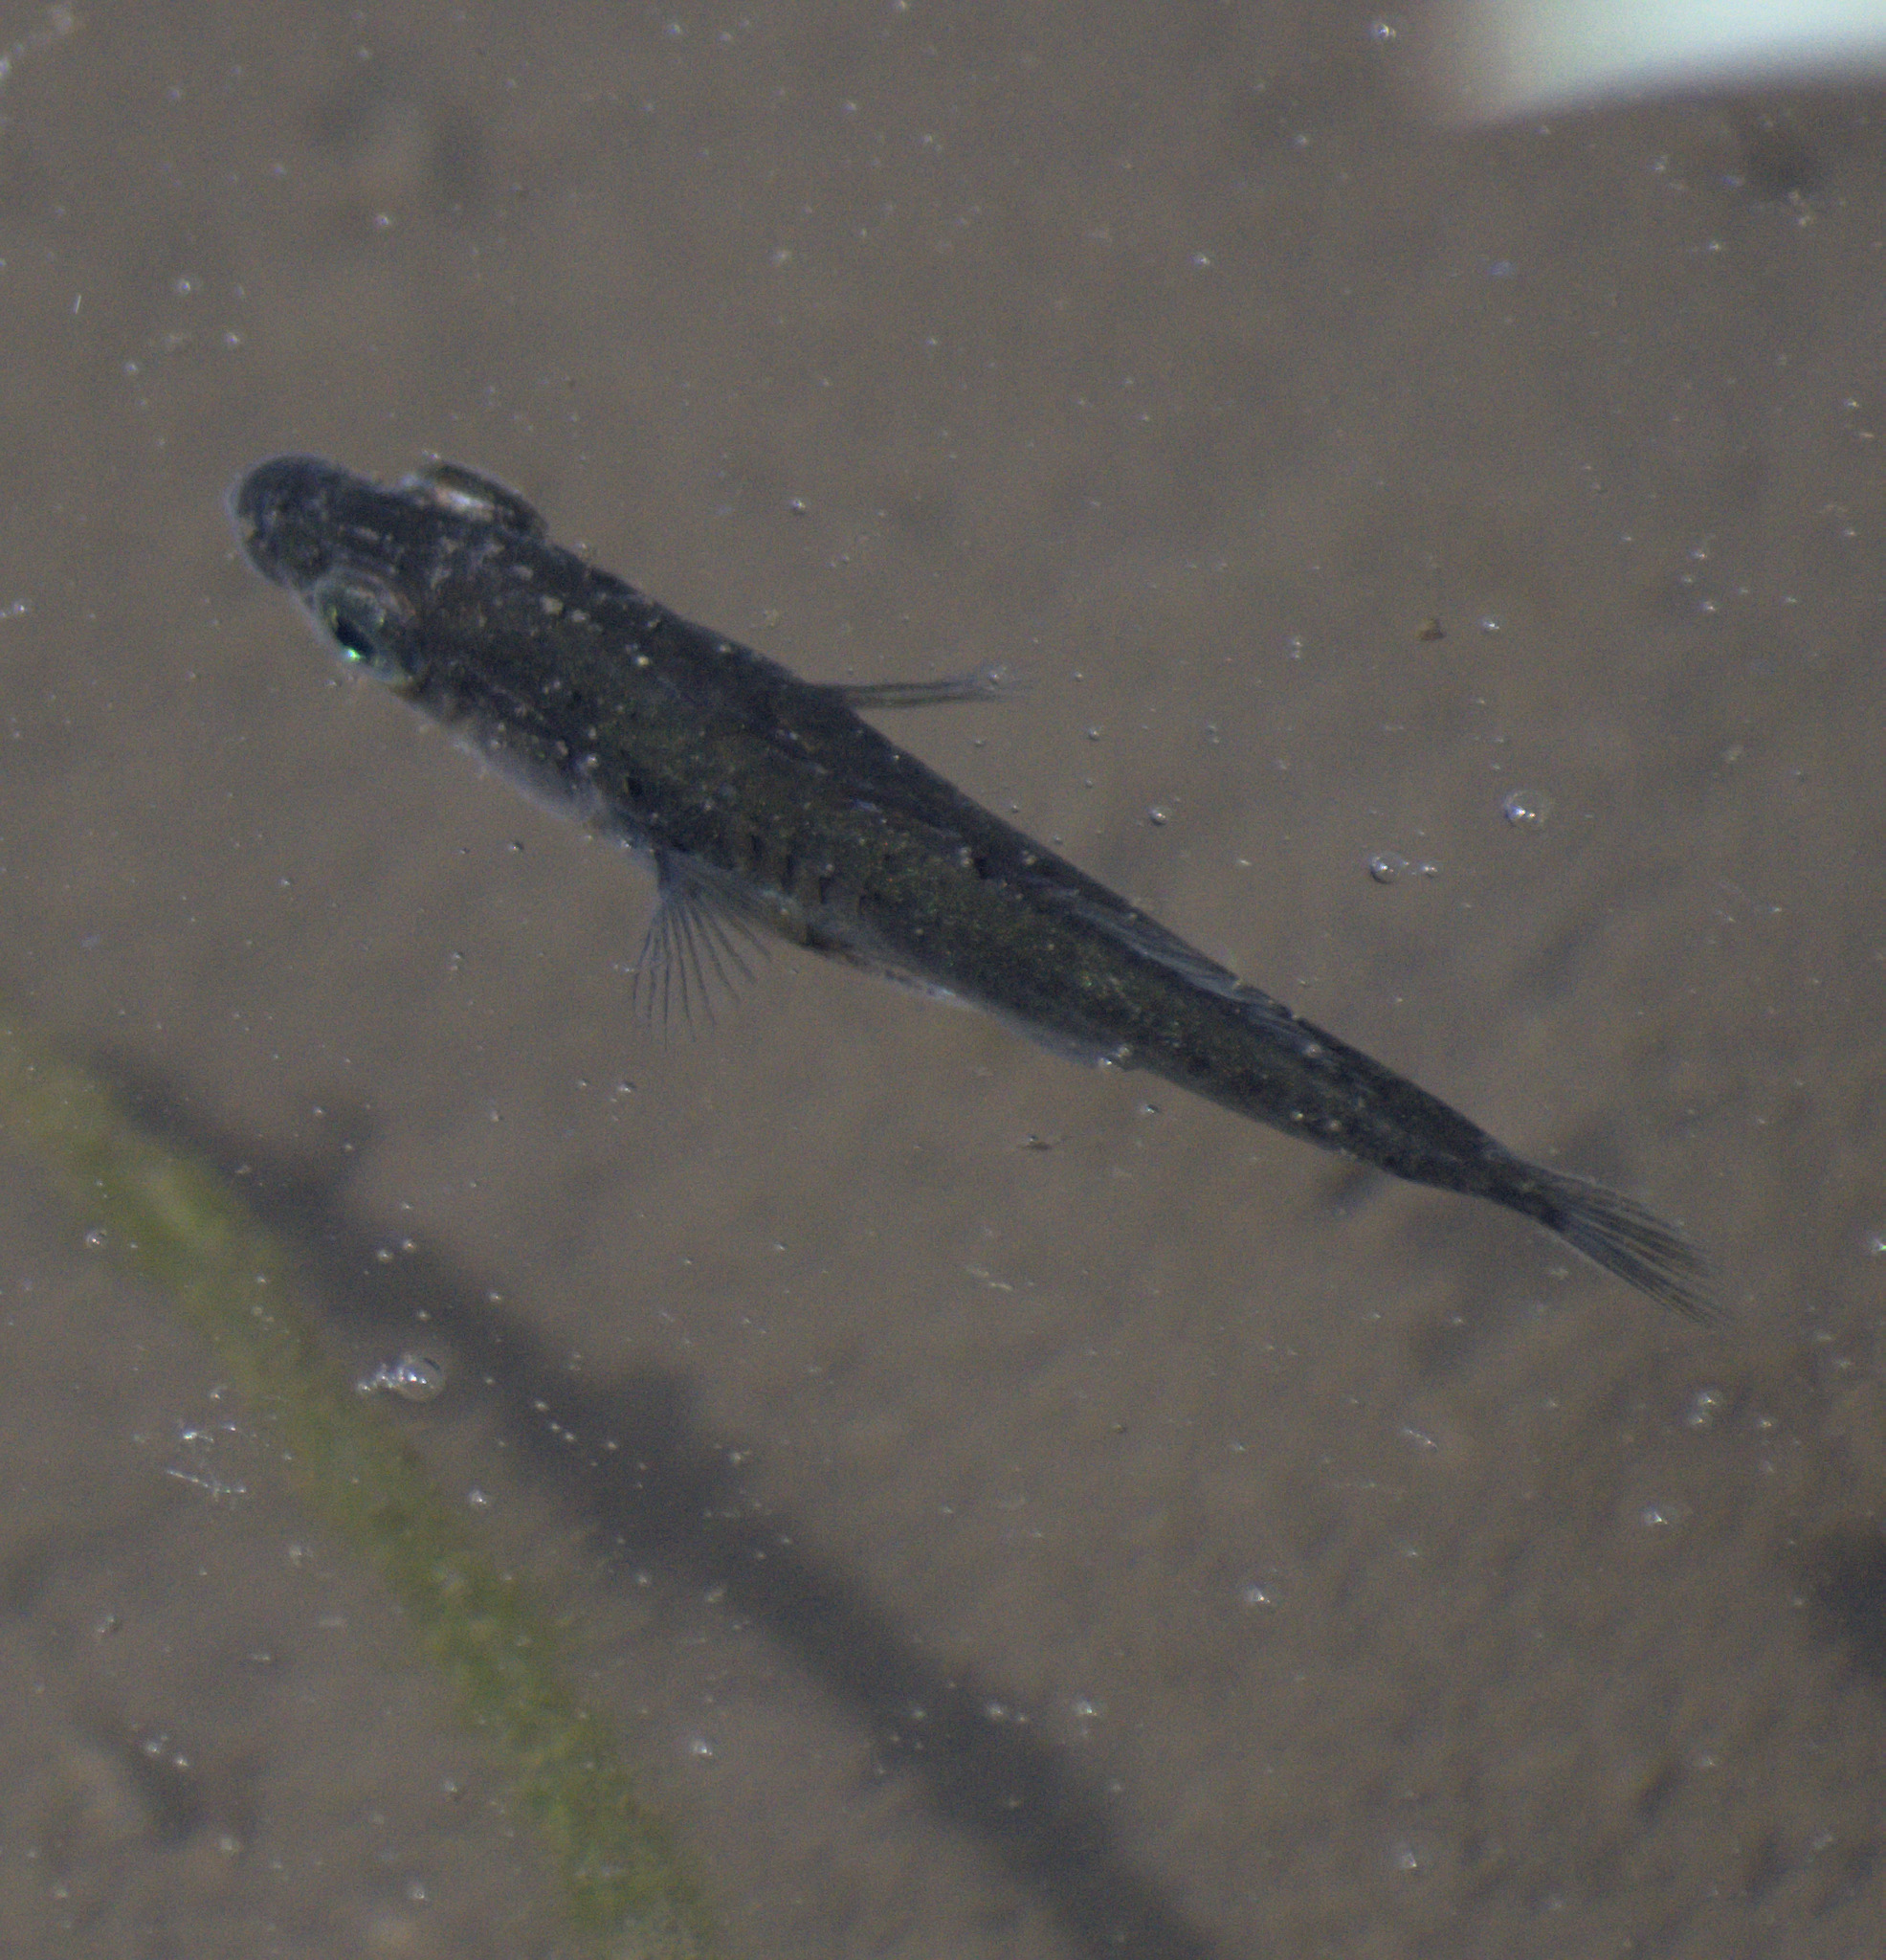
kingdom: Animalia
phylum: Chordata
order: Gasterosteiformes
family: Gasterosteidae
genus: Gasterosteus
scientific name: Gasterosteus aculeatus
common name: Three-spined stickleback
